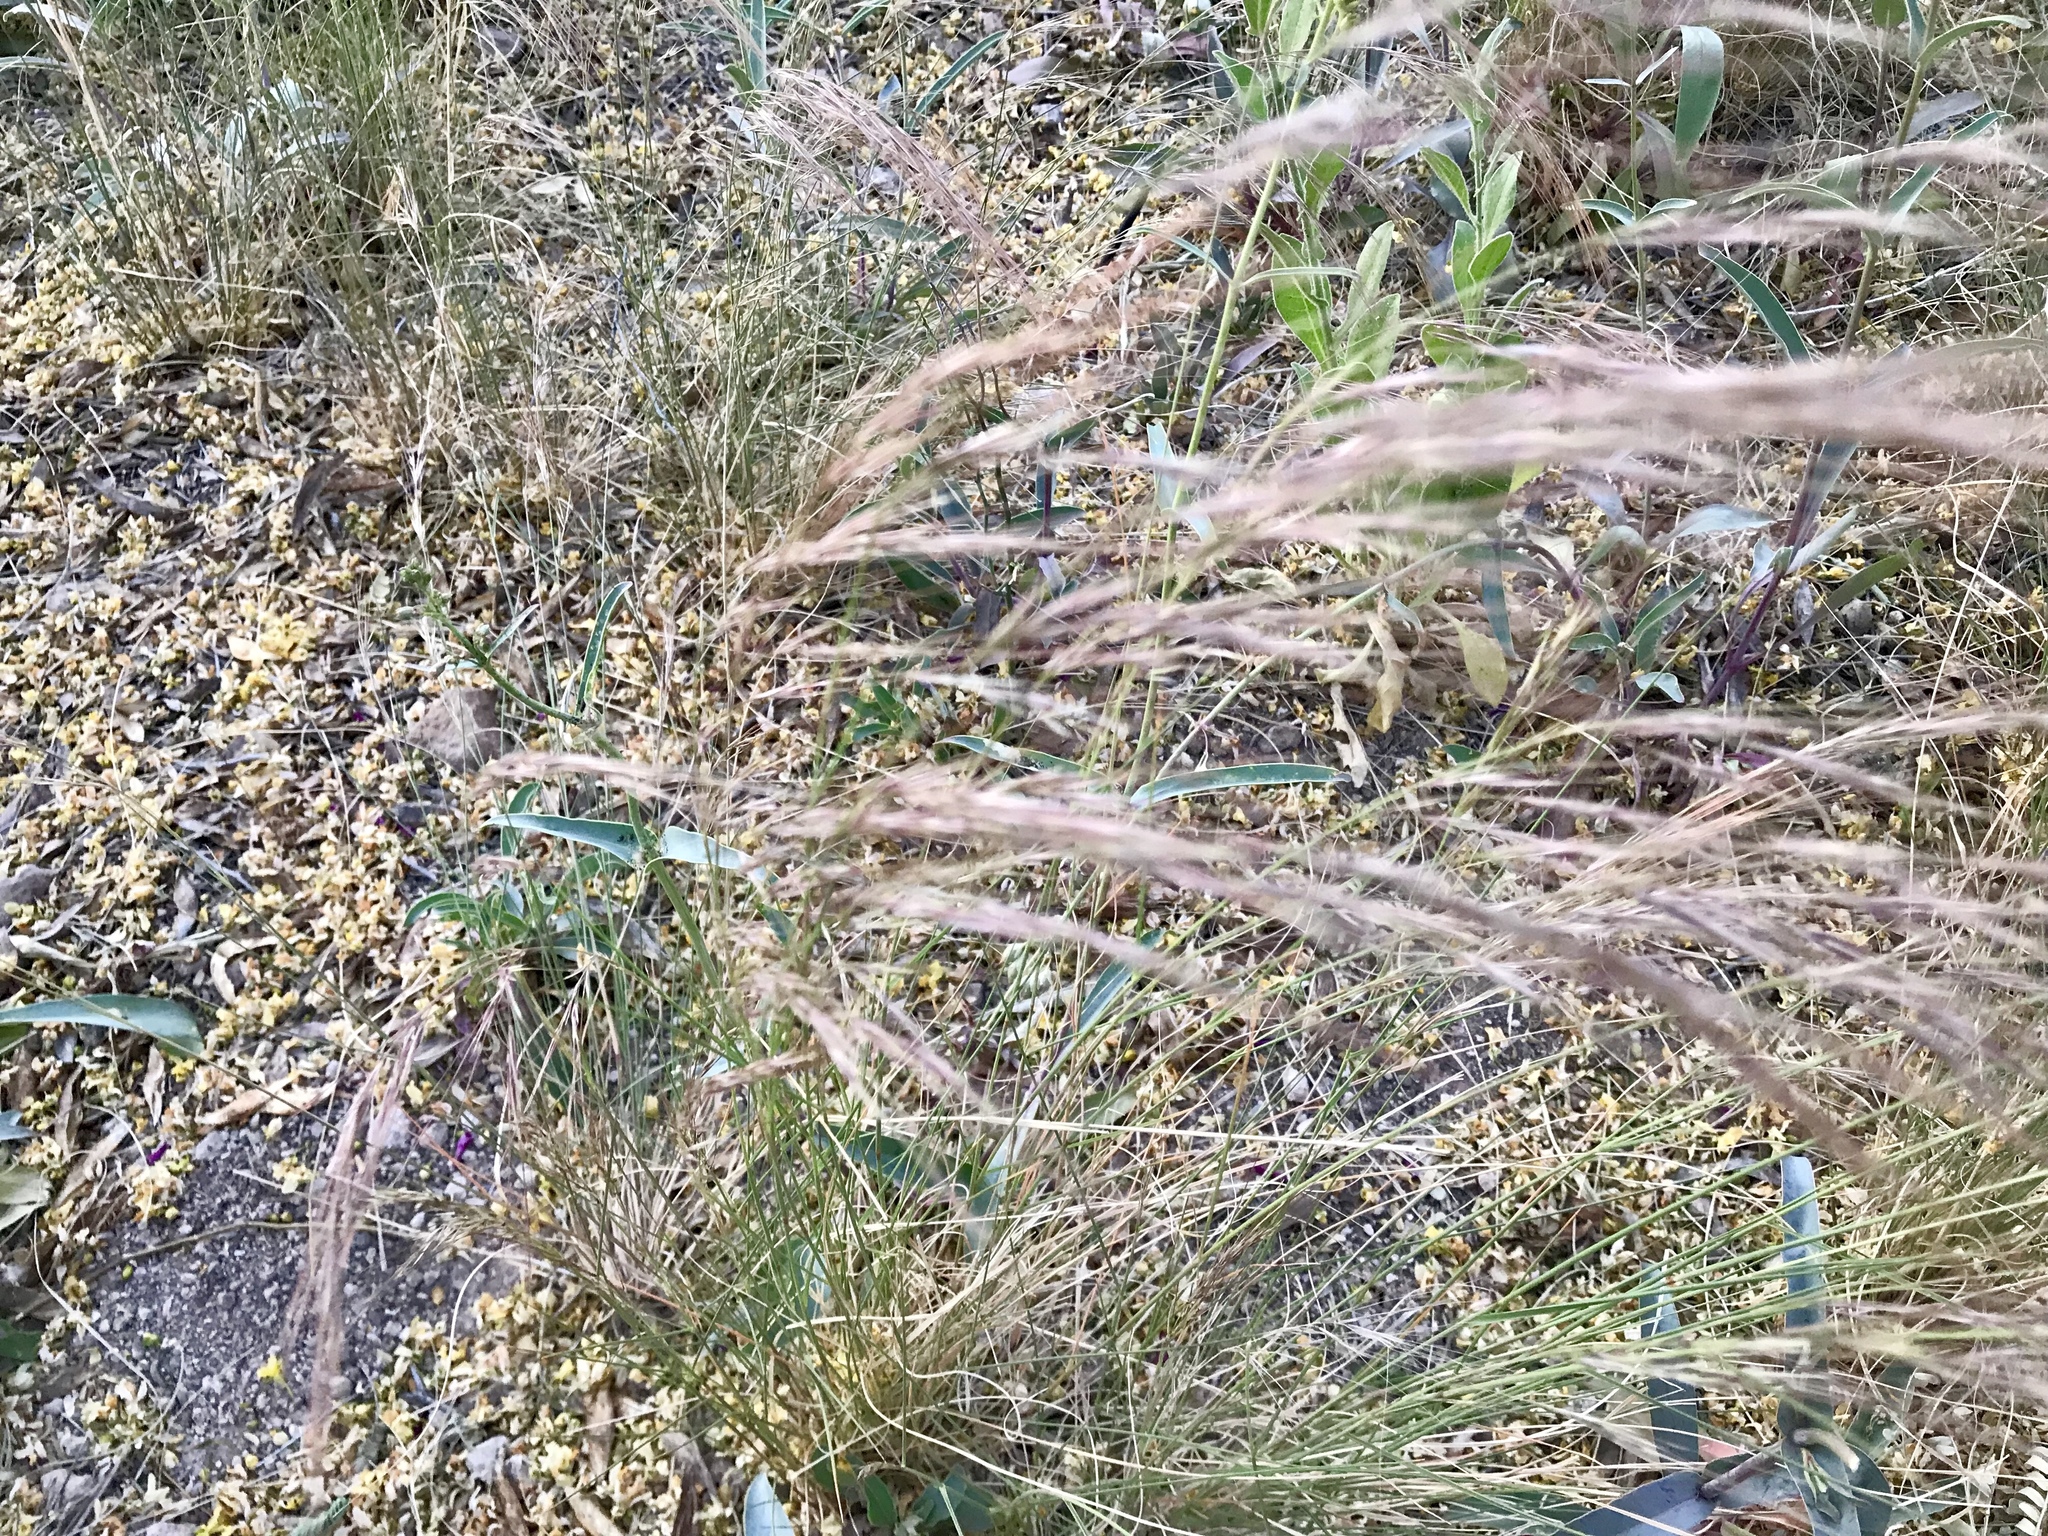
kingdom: Plantae
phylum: Tracheophyta
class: Liliopsida
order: Poales
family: Poaceae
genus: Aristida
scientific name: Aristida purpurea
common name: Purple threeawn
